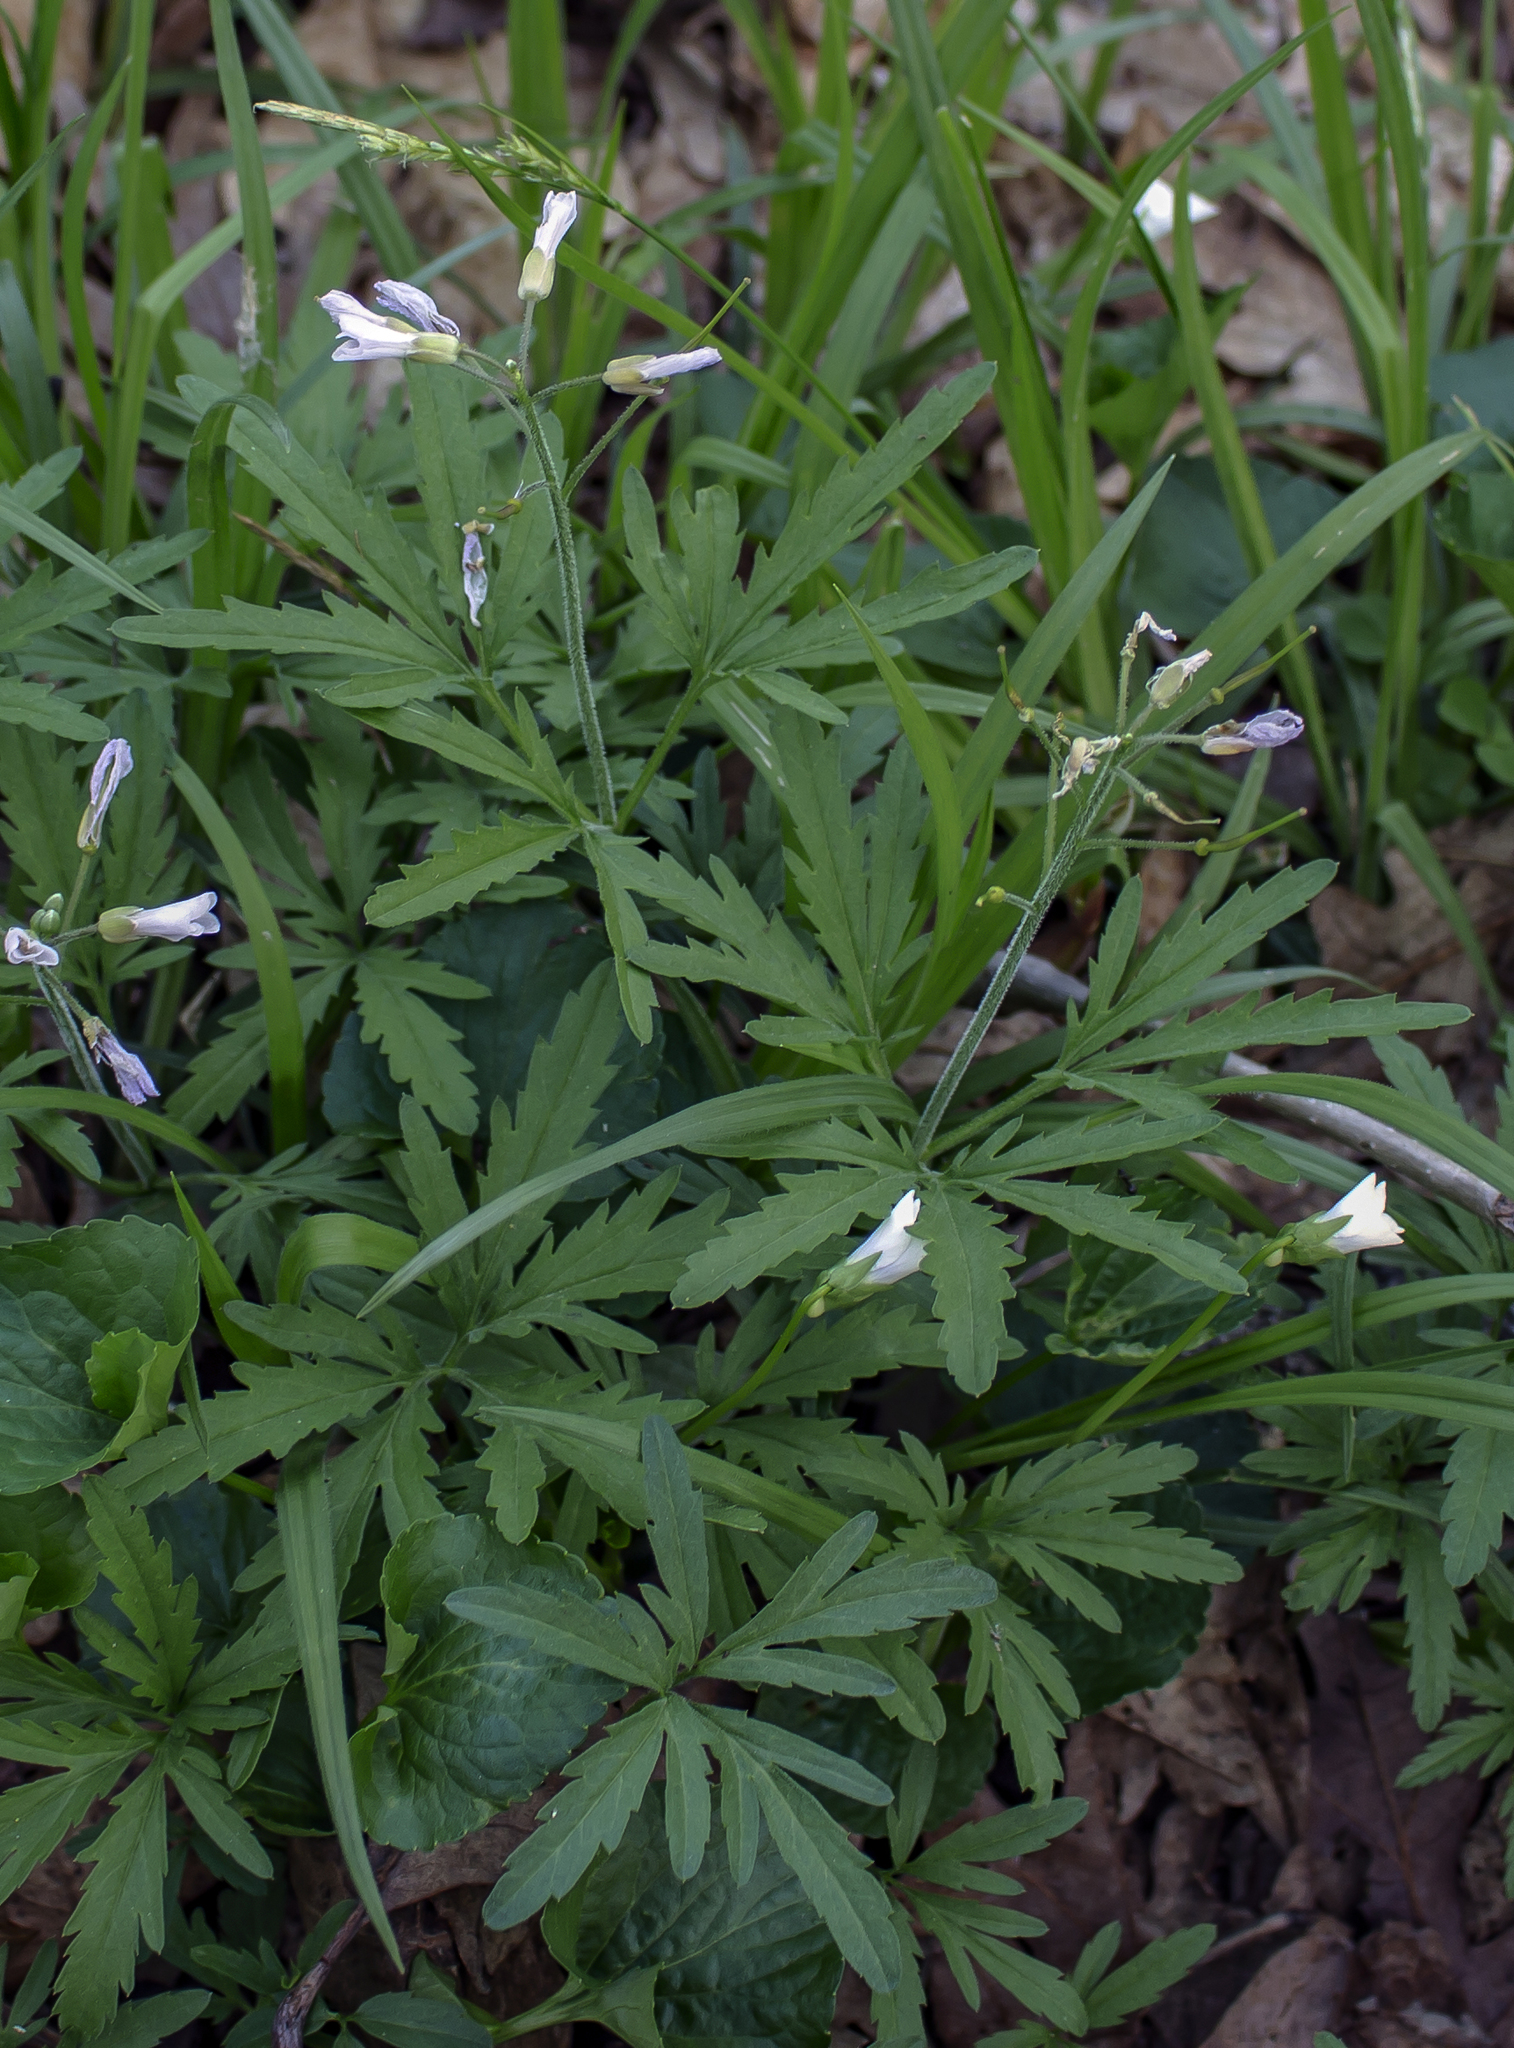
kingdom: Plantae
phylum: Tracheophyta
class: Magnoliopsida
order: Brassicales
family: Brassicaceae
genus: Cardamine
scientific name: Cardamine concatenata
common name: Cut-leaf toothcup
